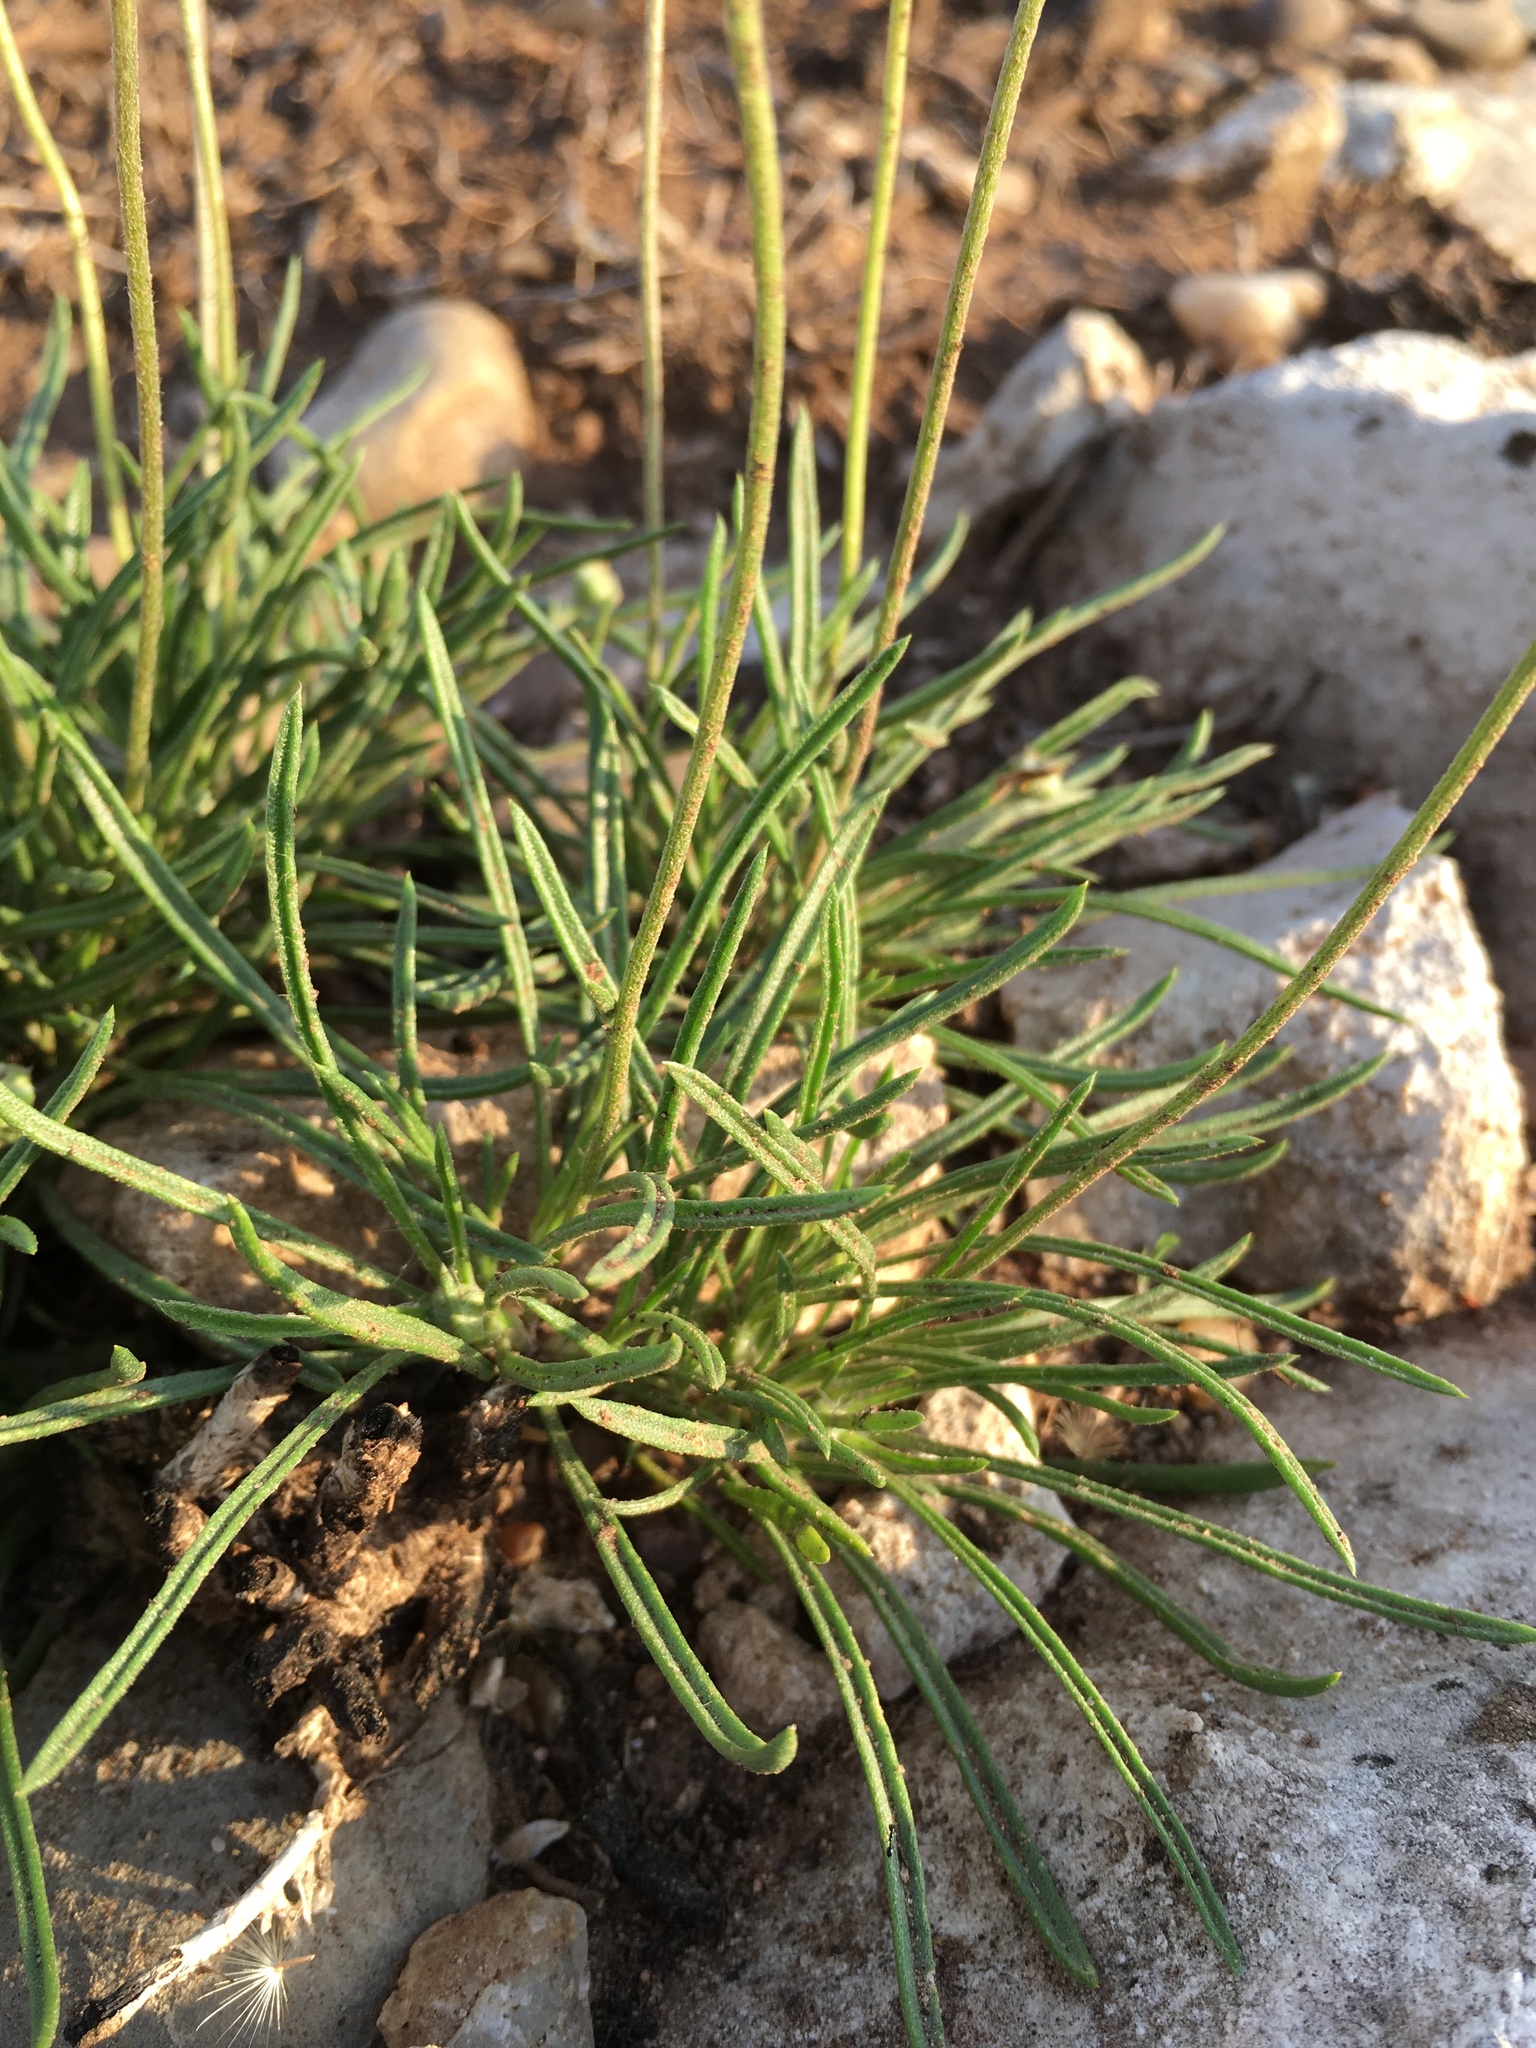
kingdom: Plantae
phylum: Tracheophyta
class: Magnoliopsida
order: Asterales
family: Asteraceae
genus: Tetraneuris
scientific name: Tetraneuris scaposa
